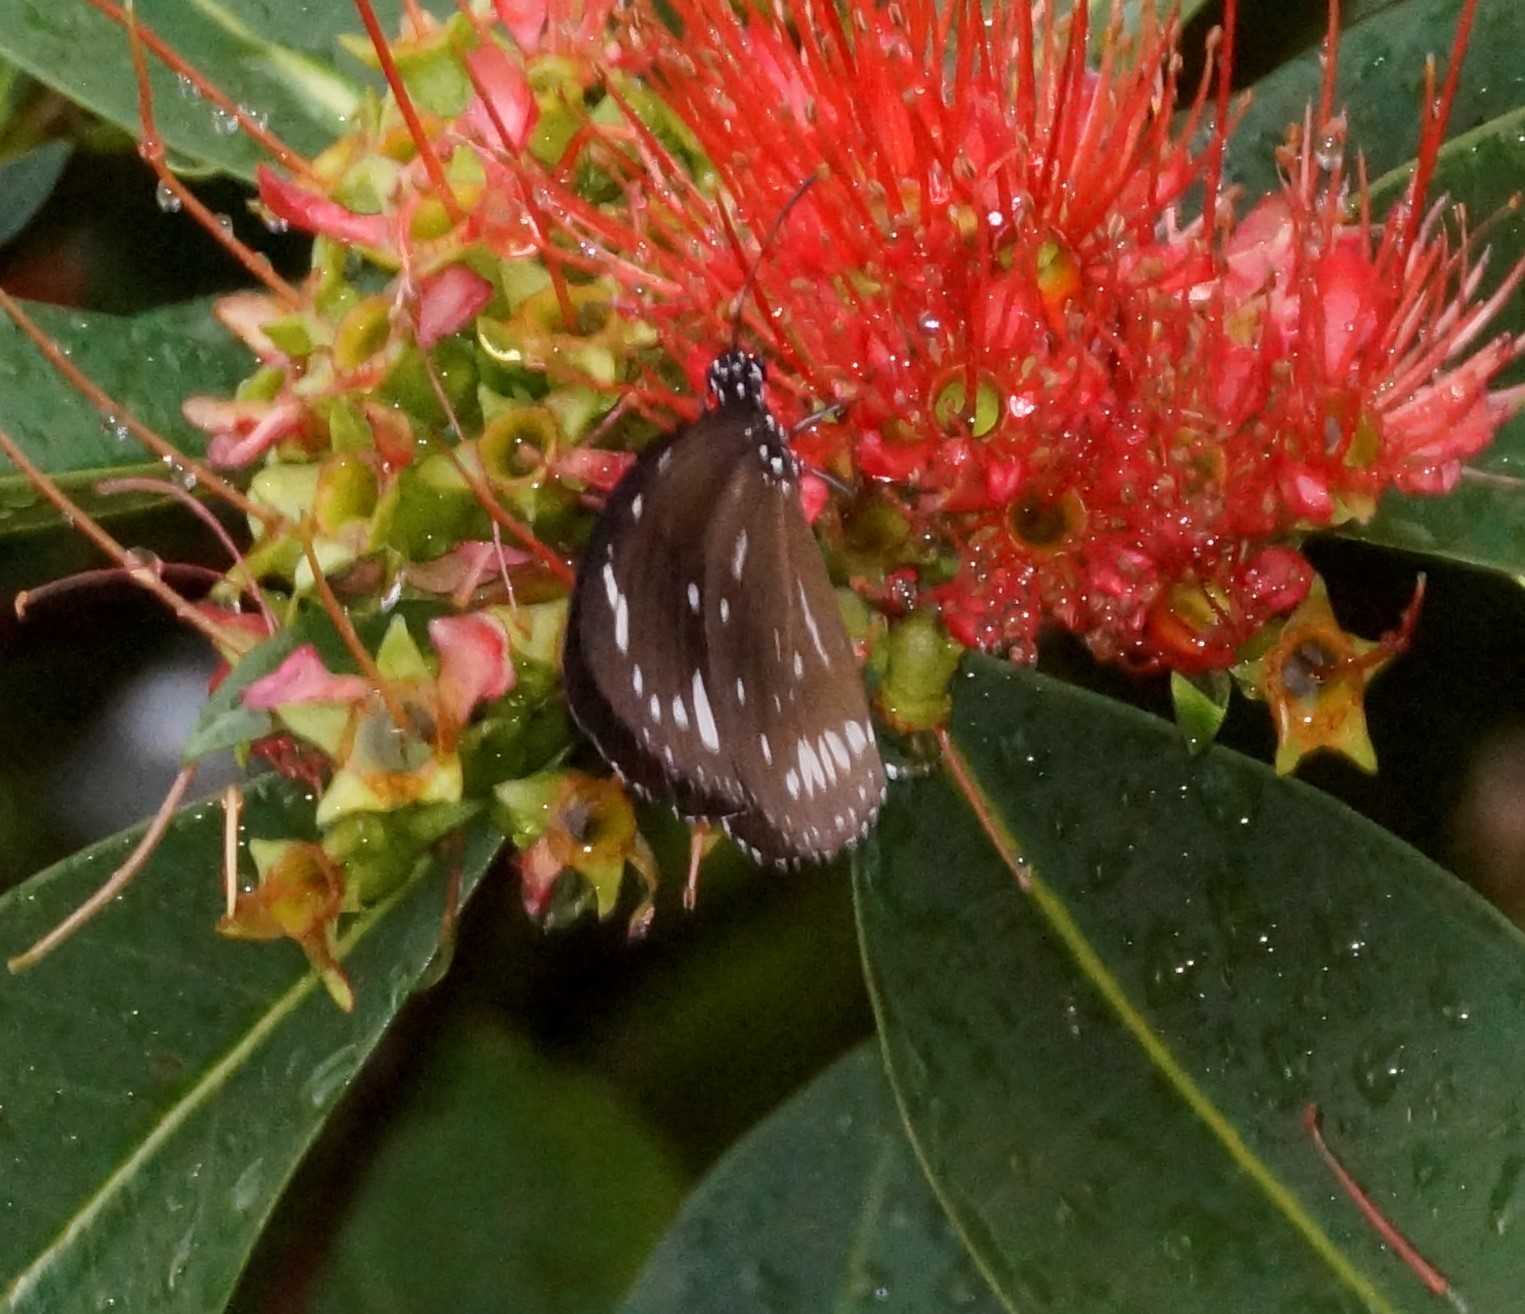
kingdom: Animalia
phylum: Arthropoda
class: Insecta
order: Lepidoptera
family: Nymphalidae
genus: Euploea
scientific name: Euploea core
